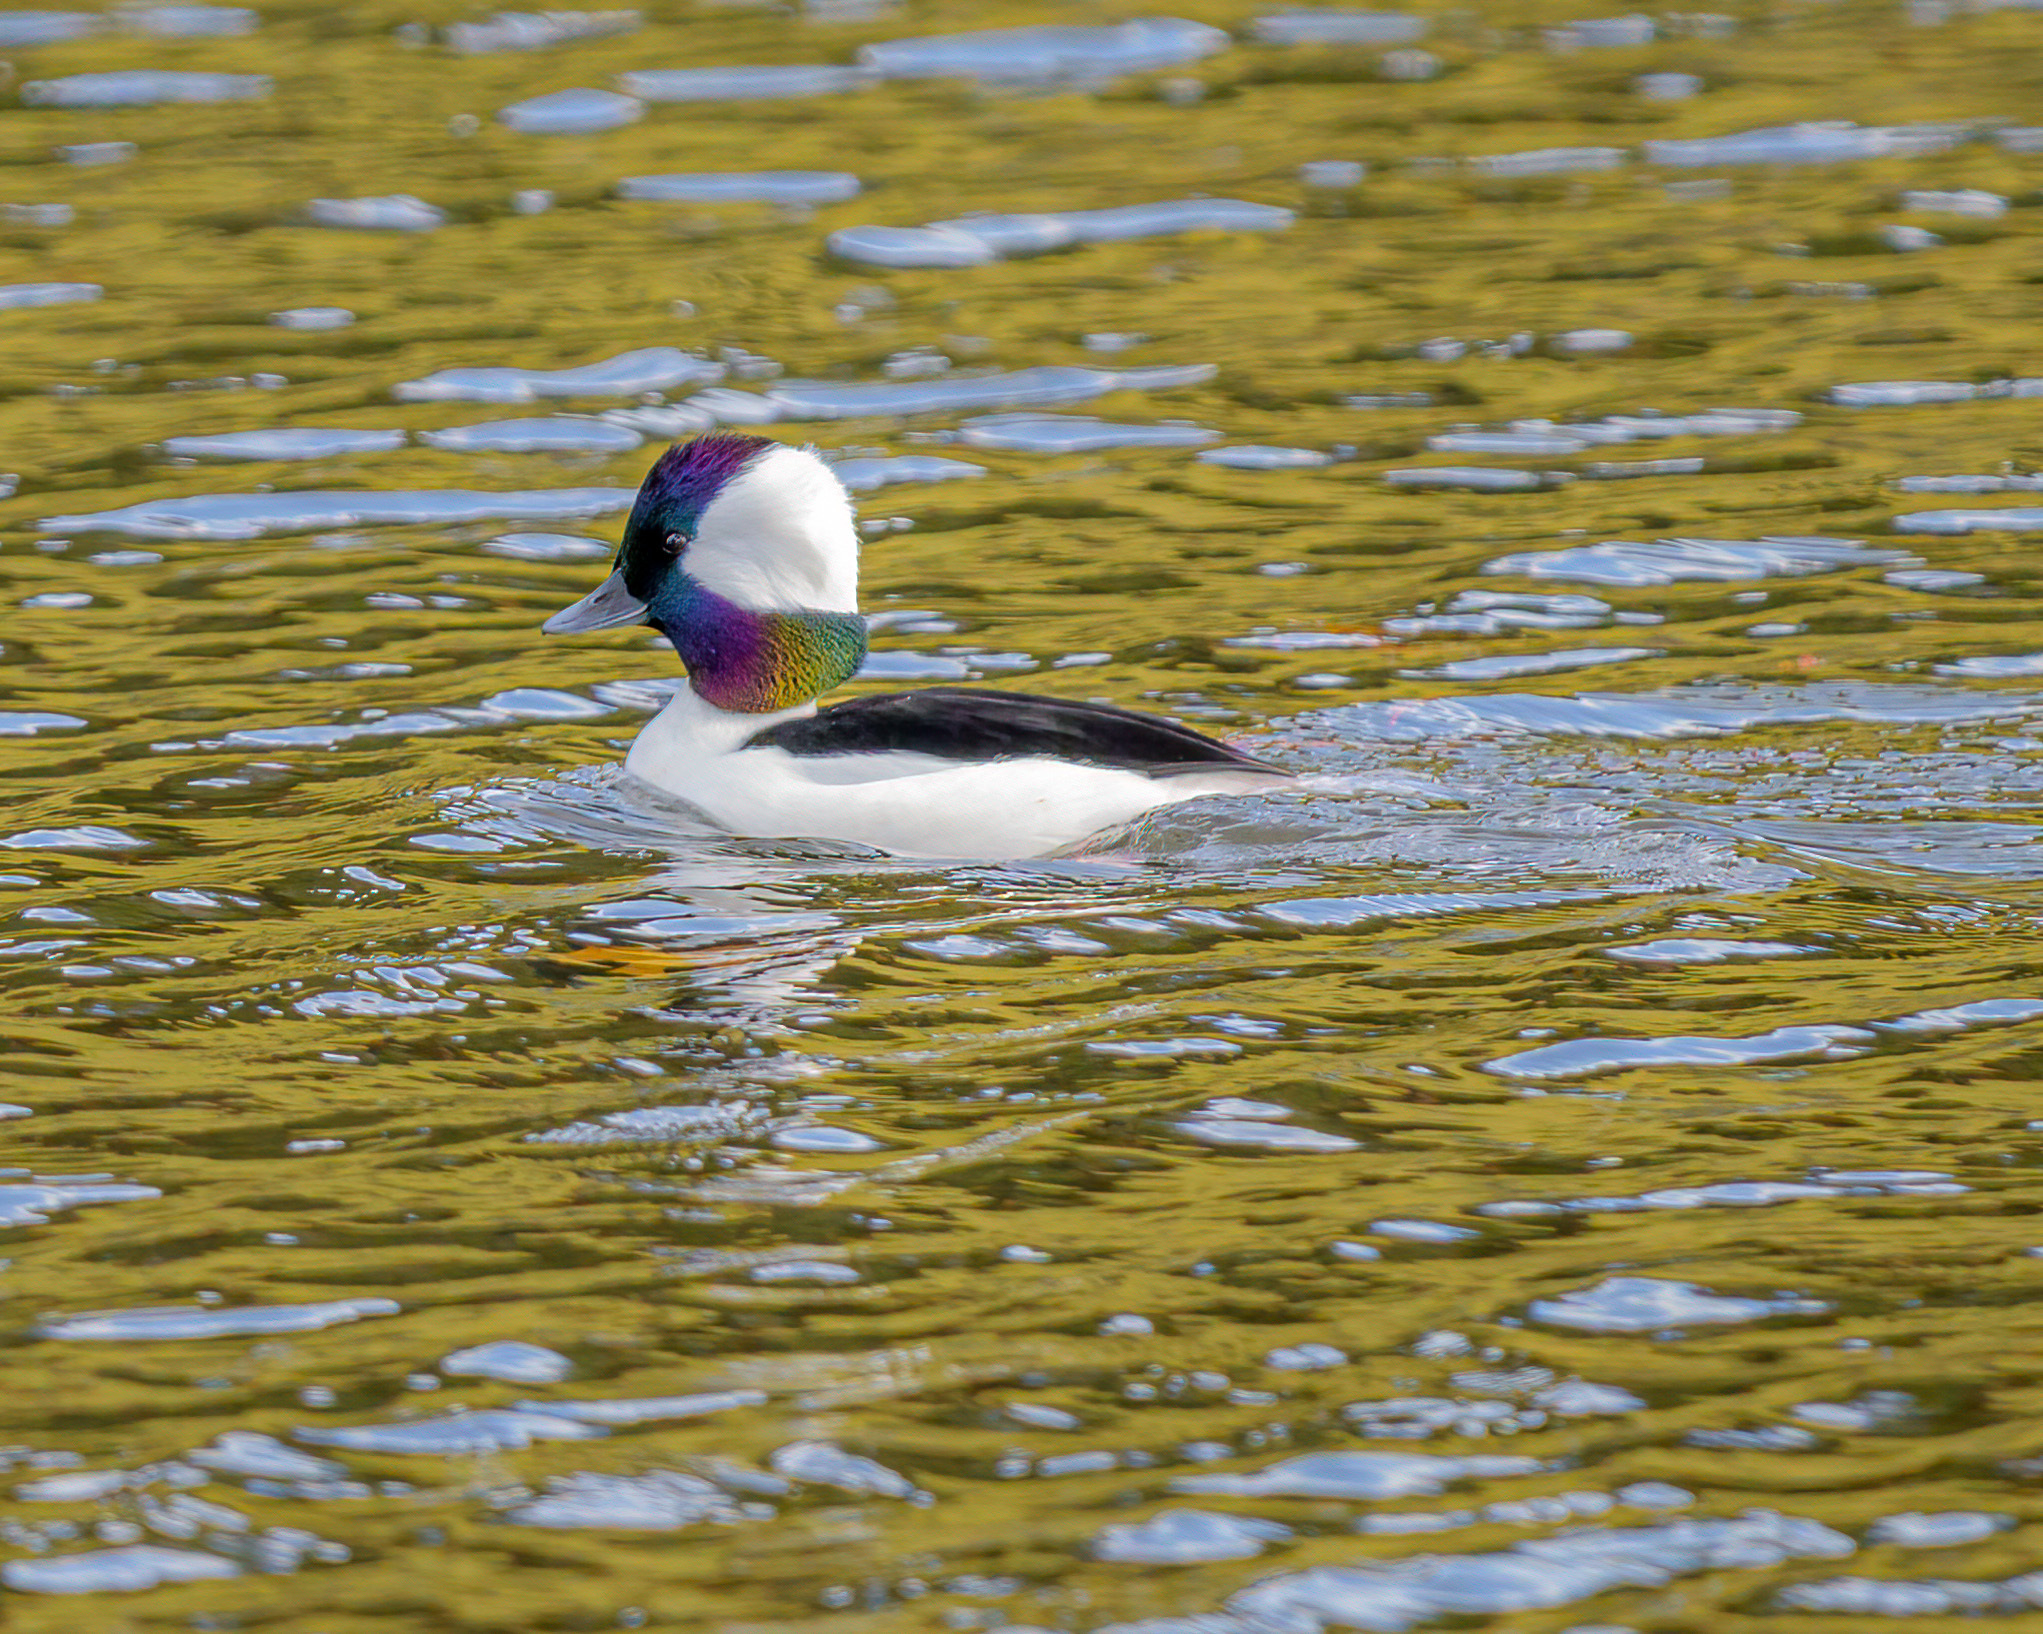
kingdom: Animalia
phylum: Chordata
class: Aves
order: Anseriformes
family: Anatidae
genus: Bucephala
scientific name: Bucephala albeola
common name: Bufflehead
